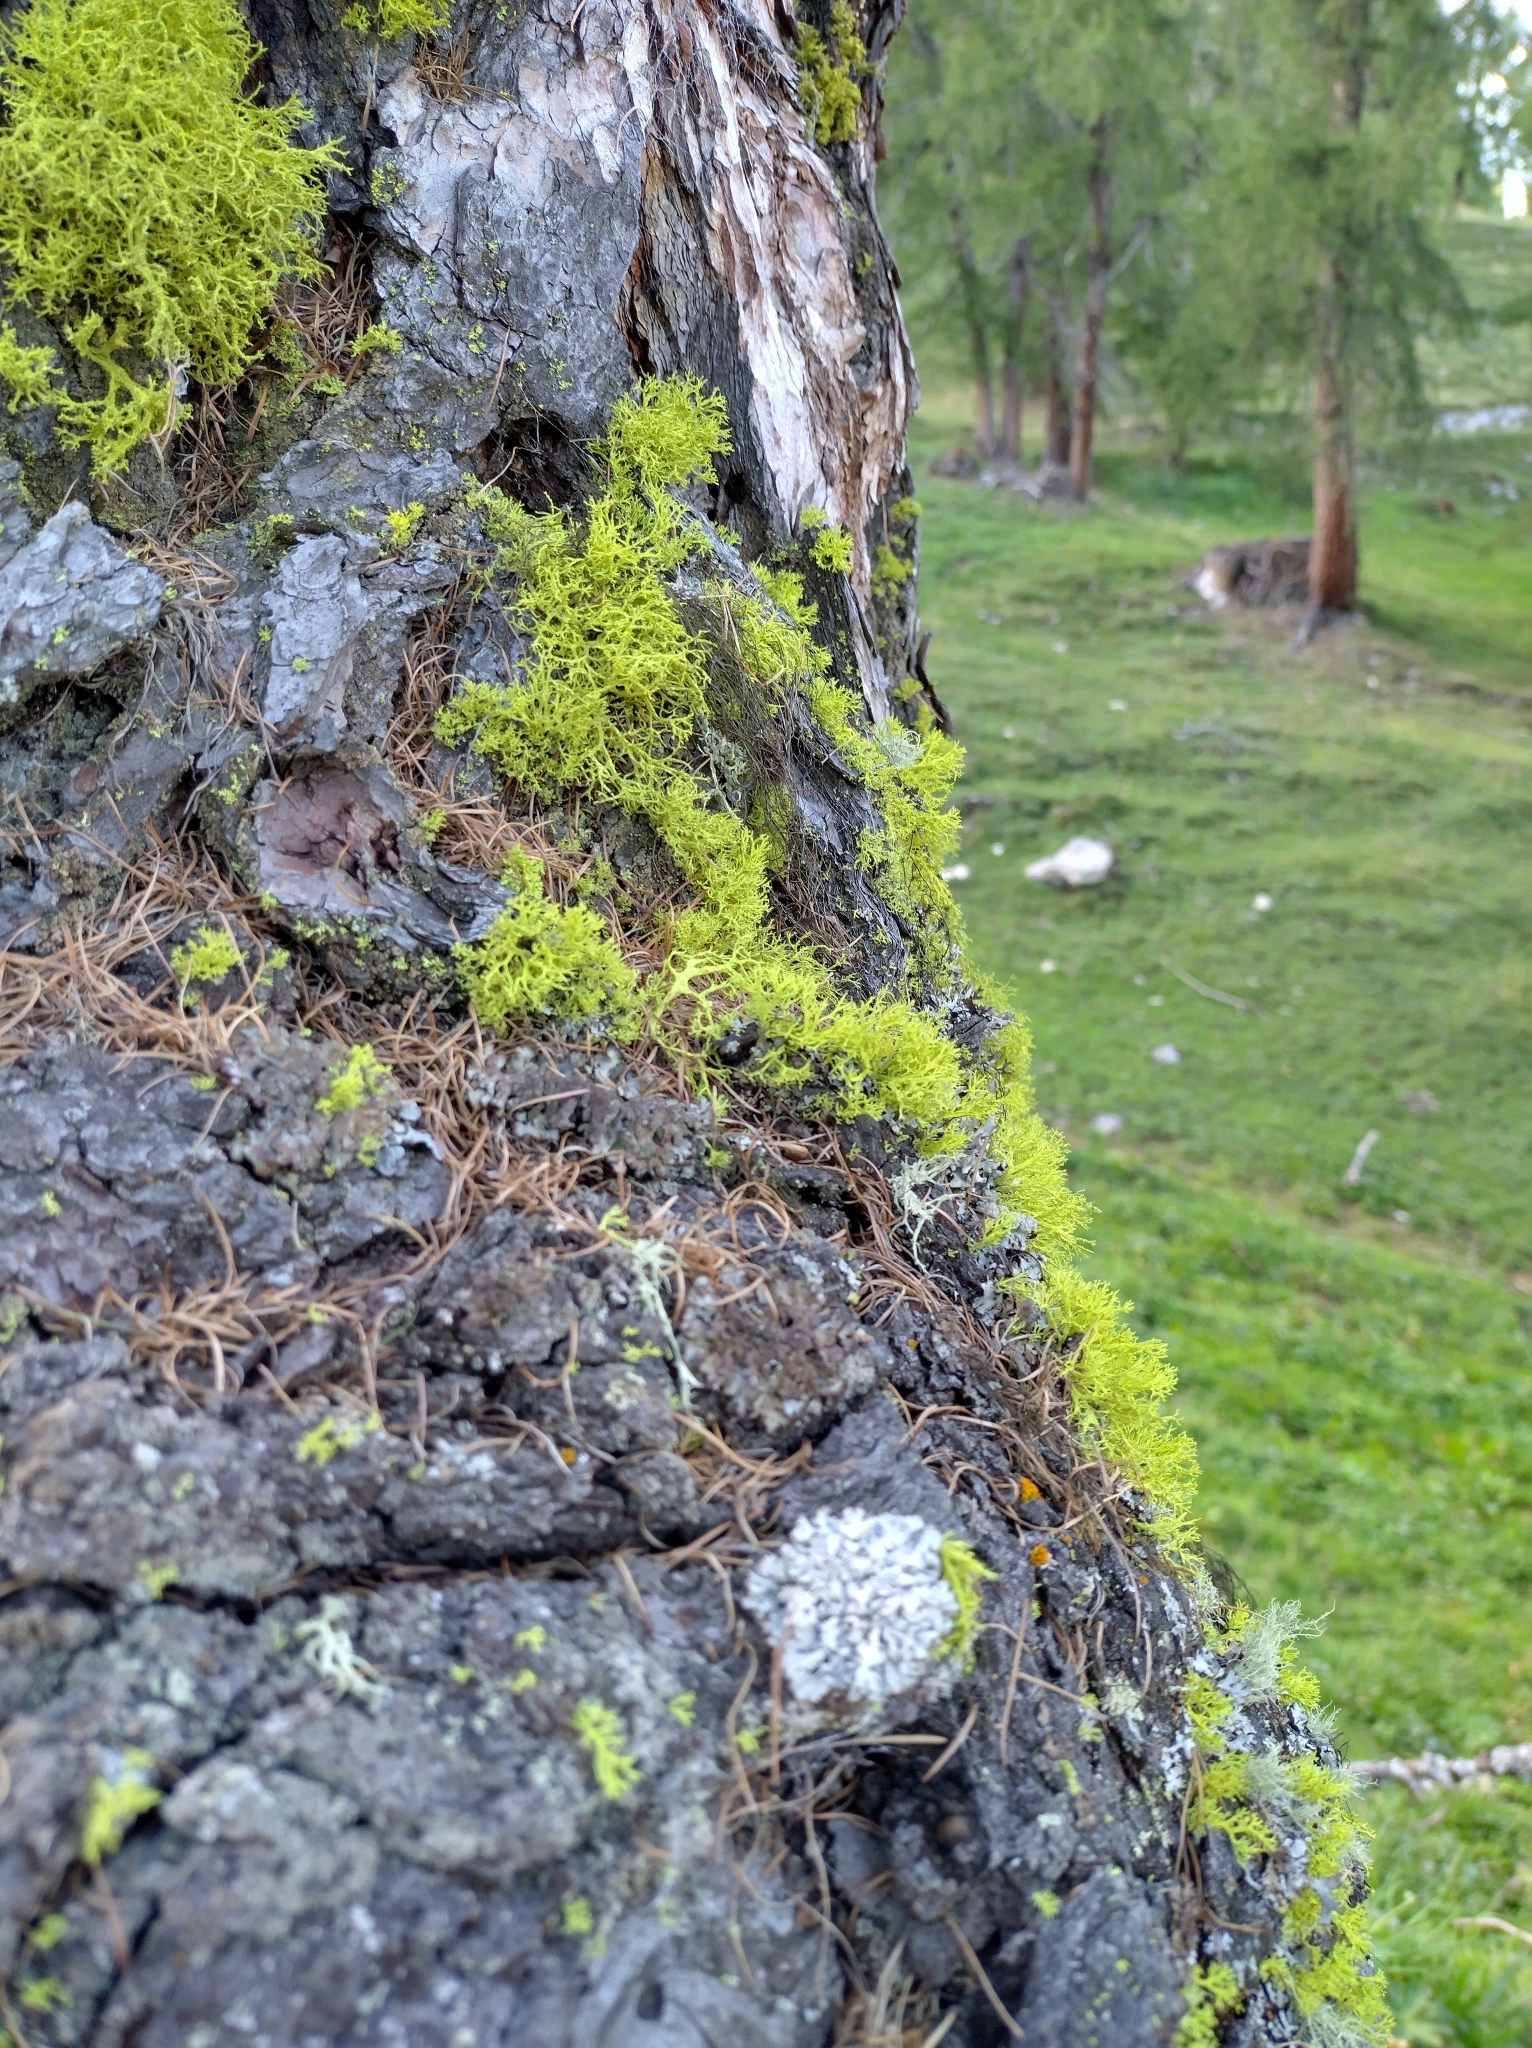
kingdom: Fungi
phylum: Ascomycota
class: Lecanoromycetes
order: Lecanorales
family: Parmeliaceae
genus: Letharia
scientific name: Letharia vulpina
